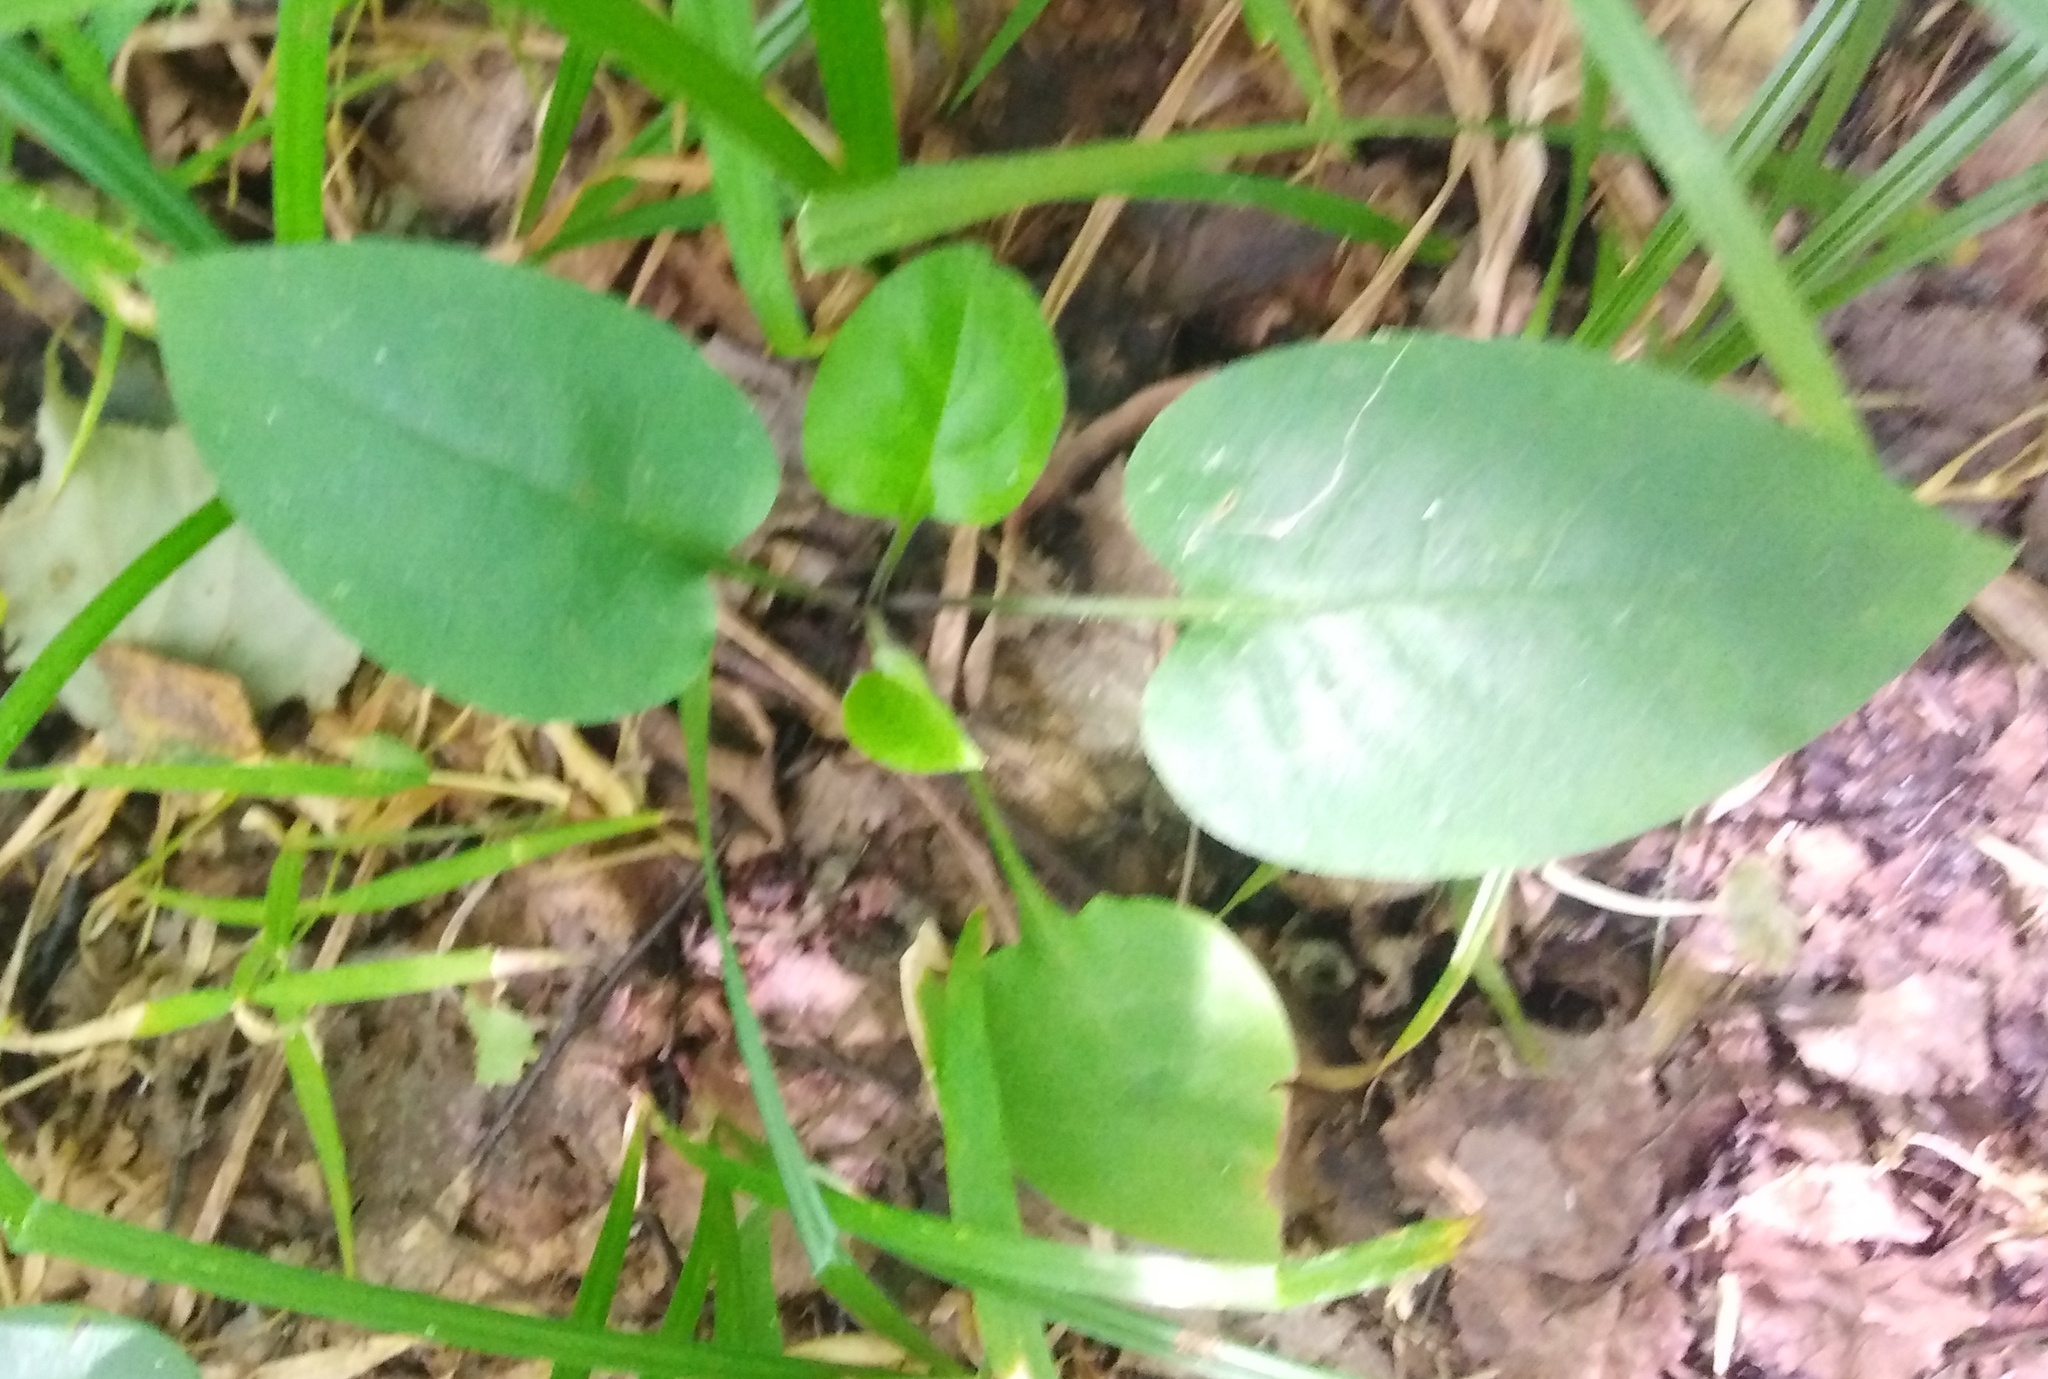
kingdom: Plantae
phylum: Tracheophyta
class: Magnoliopsida
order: Boraginales
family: Boraginaceae
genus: Pulmonaria
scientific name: Pulmonaria obscura
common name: Suffolk lungwort
